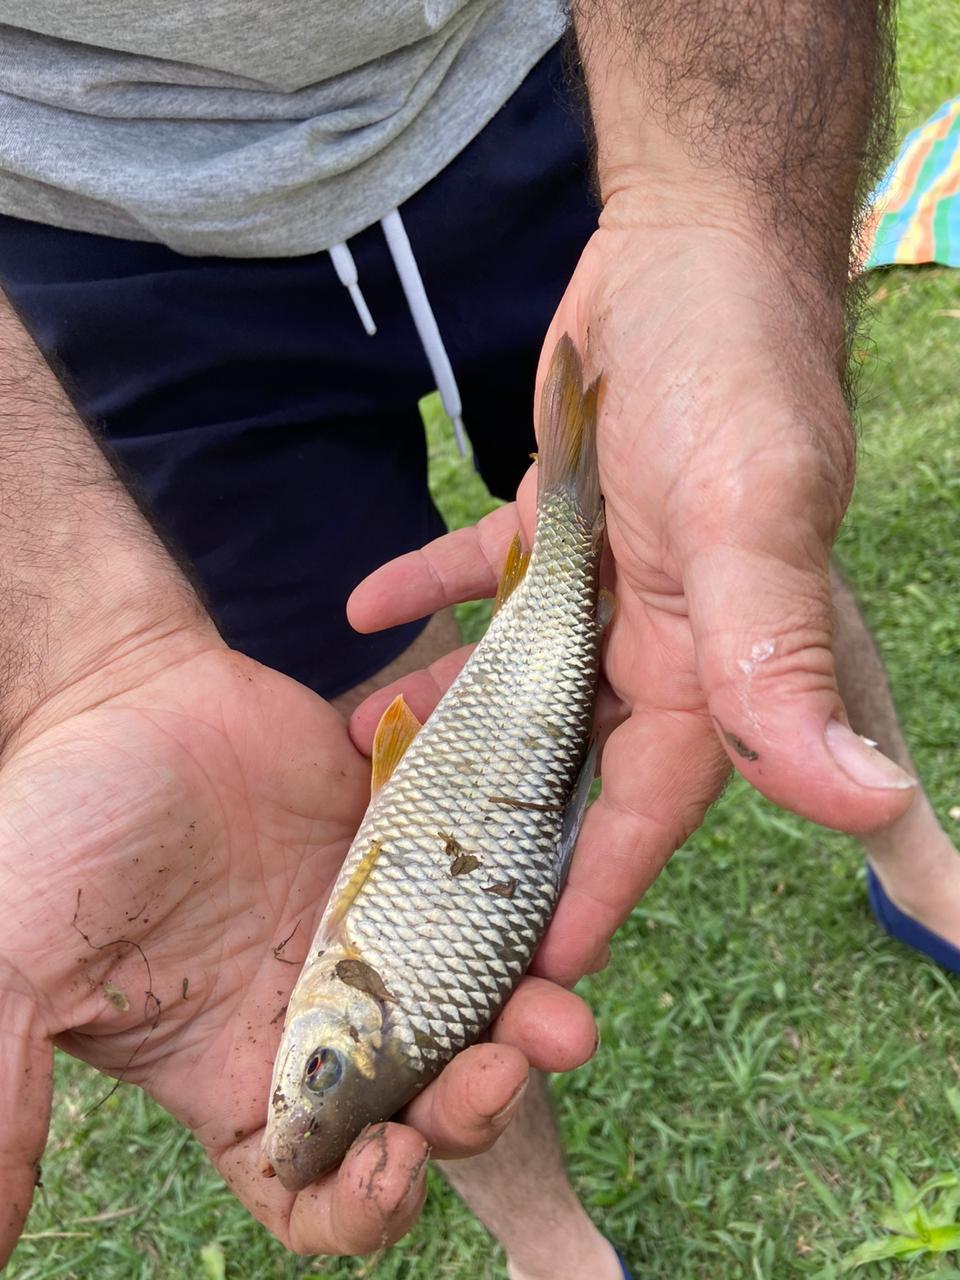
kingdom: Animalia
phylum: Chordata
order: Characiformes
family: Anostomidae
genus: Leporinus
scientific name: Leporinus obtusidens
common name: Characin
